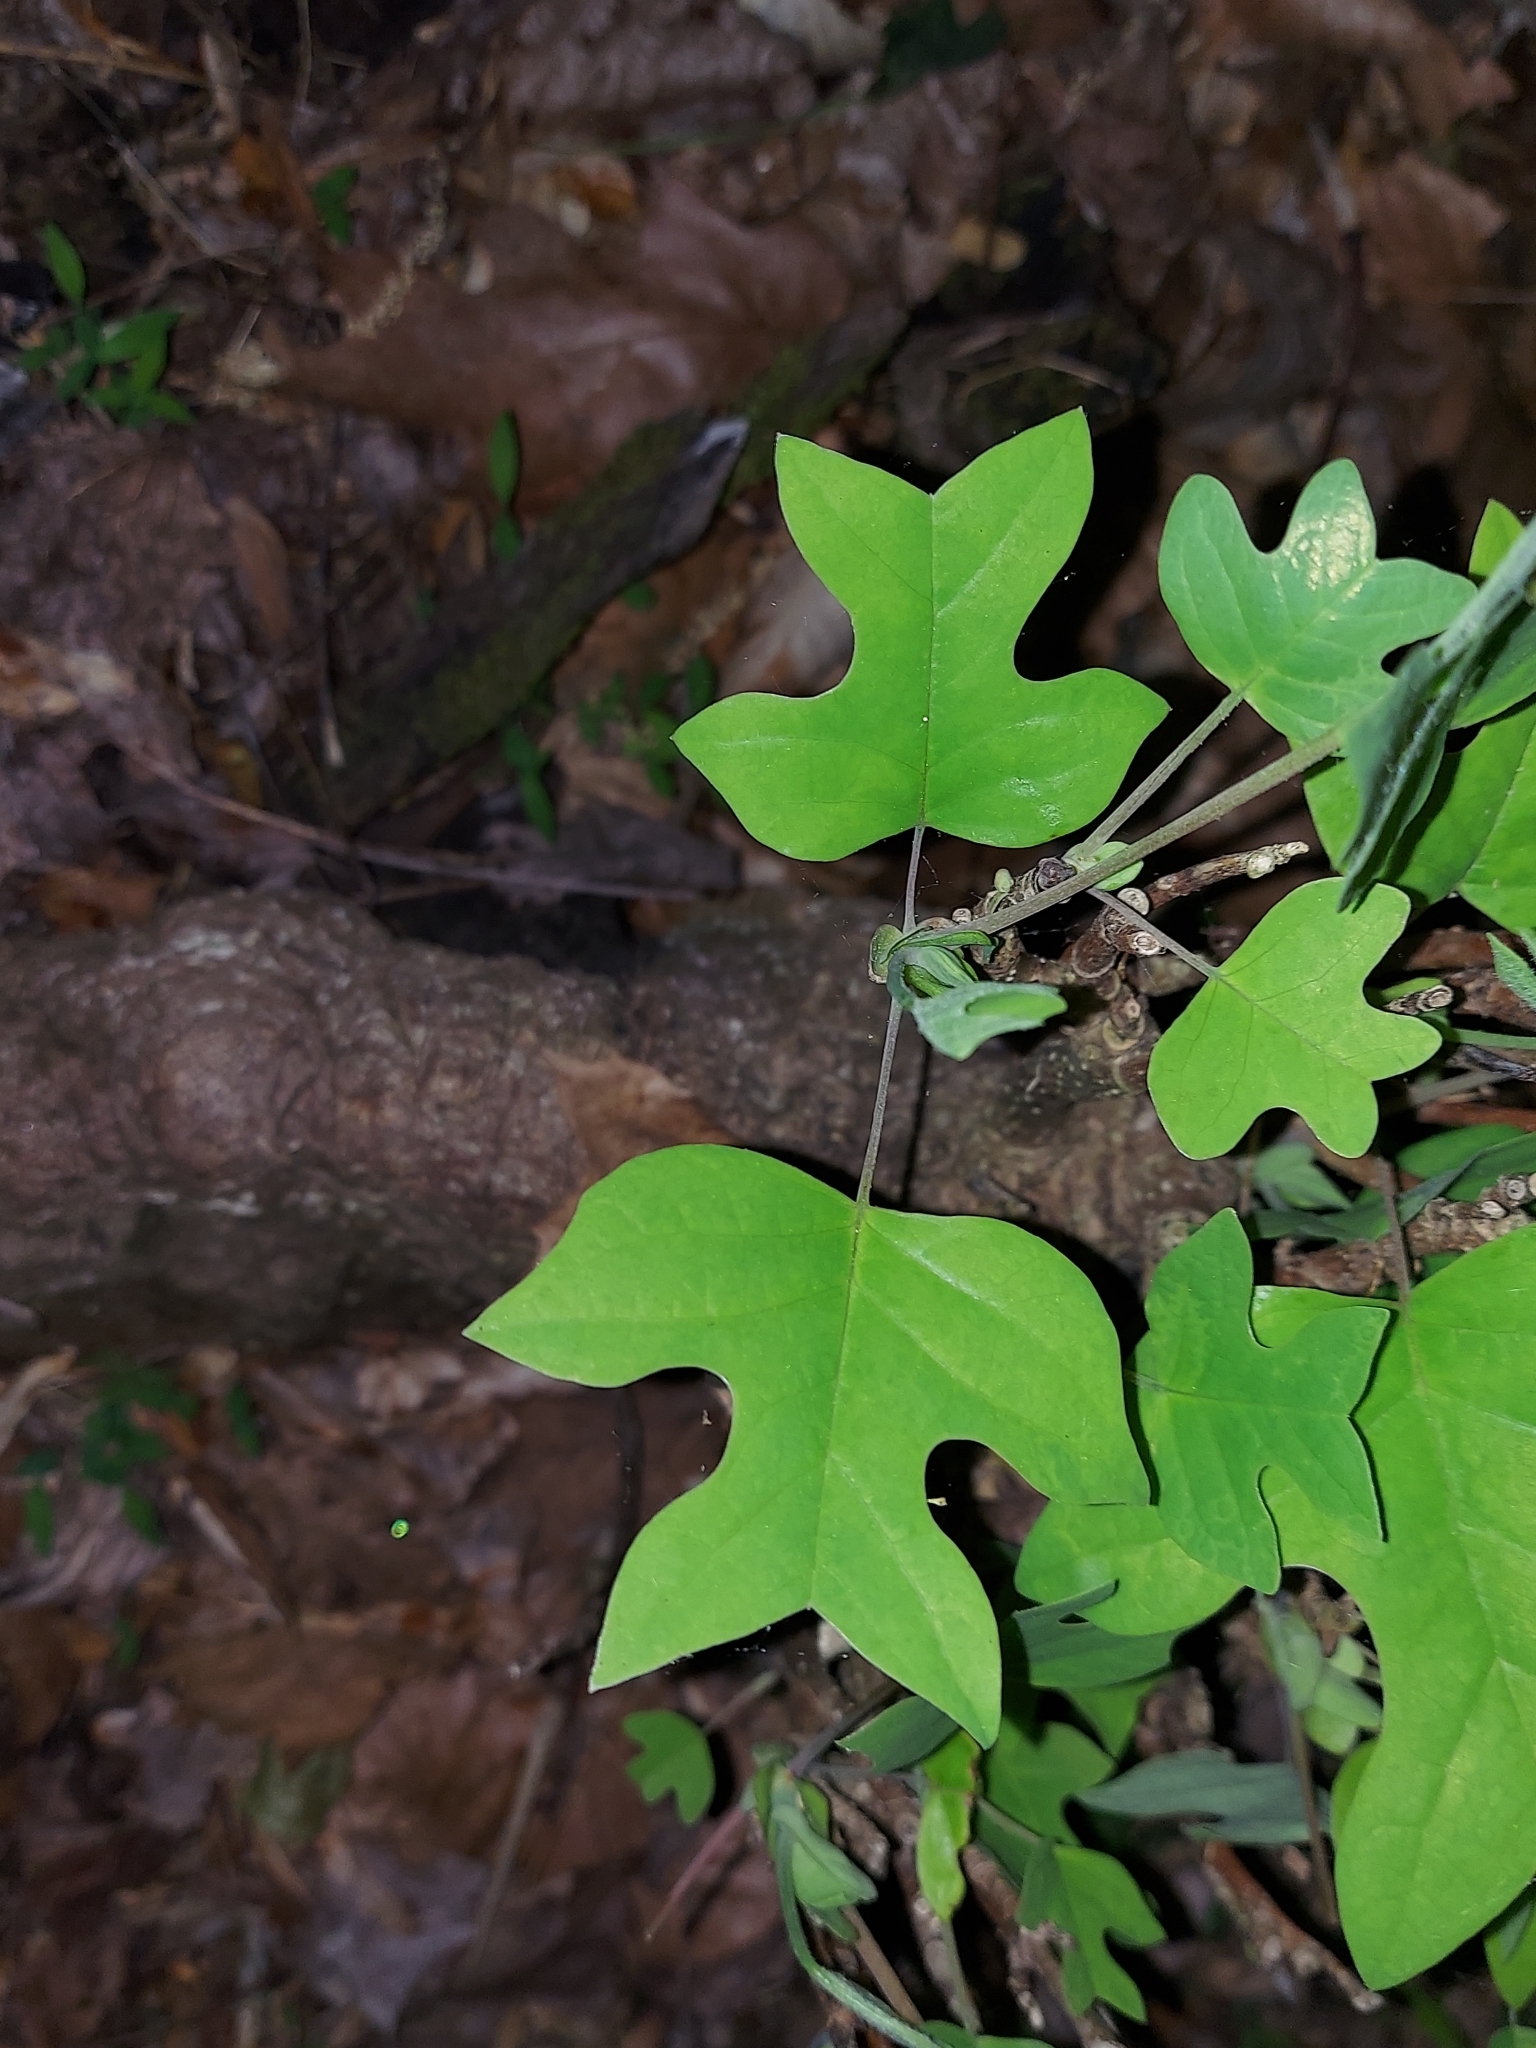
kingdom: Plantae
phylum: Tracheophyta
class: Magnoliopsida
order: Magnoliales
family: Magnoliaceae
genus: Liriodendron
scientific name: Liriodendron tulipifera
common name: Tulip tree
